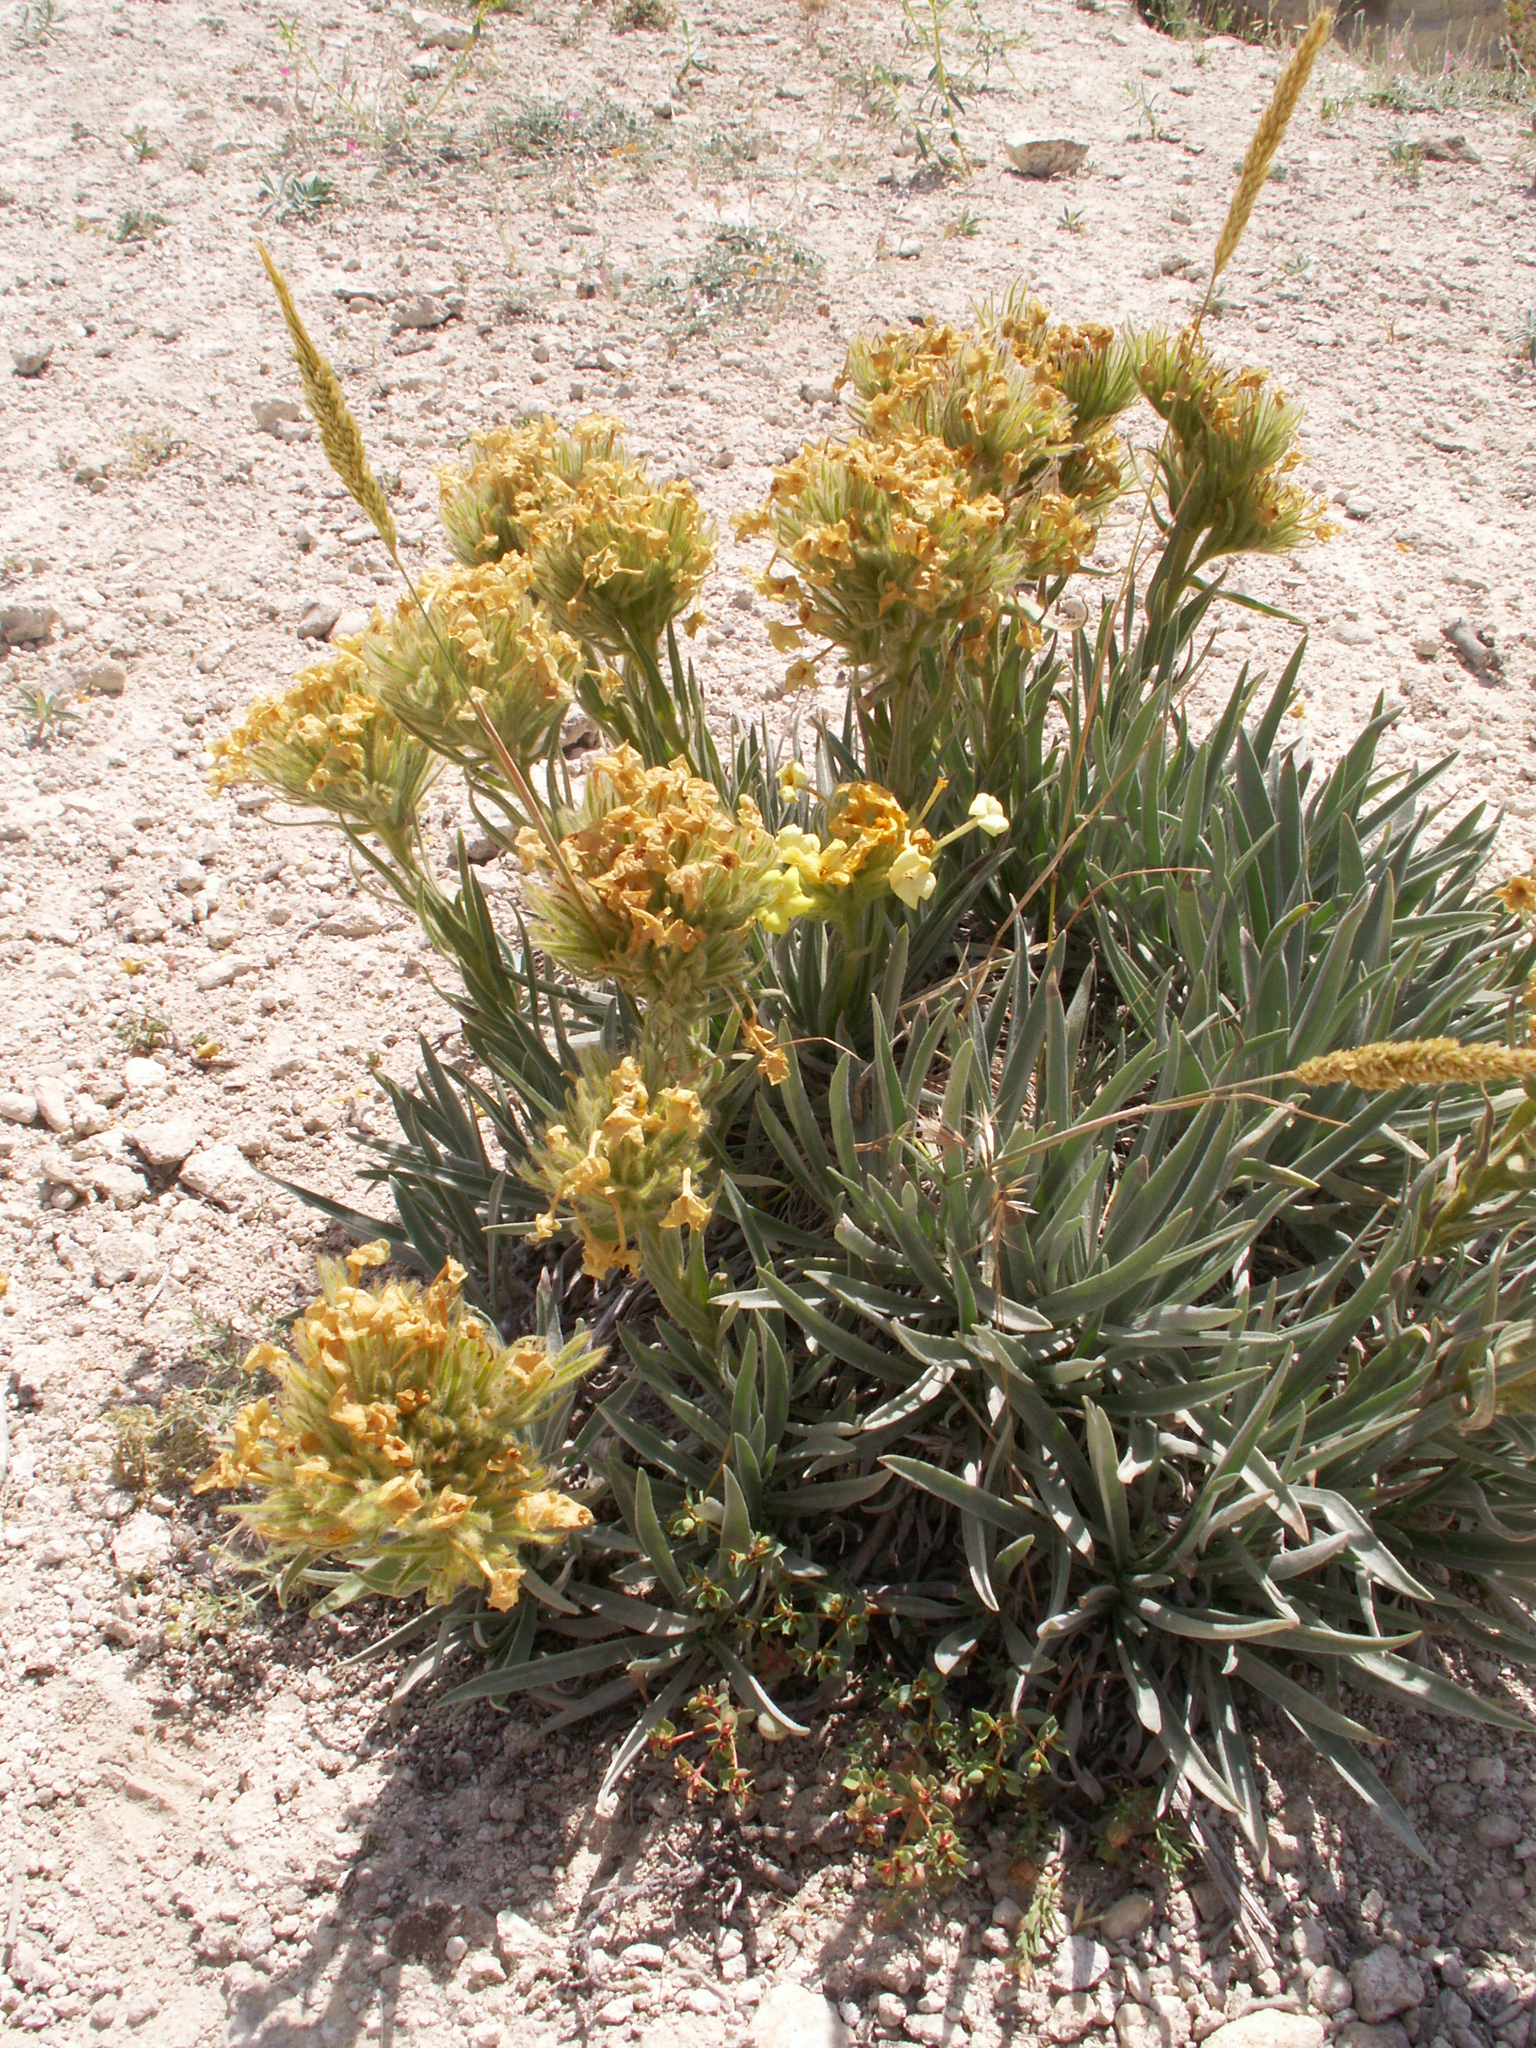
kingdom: Plantae
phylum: Tracheophyta
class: Magnoliopsida
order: Boraginales
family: Boraginaceae
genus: Arnebia
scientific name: Arnebia densiflora
